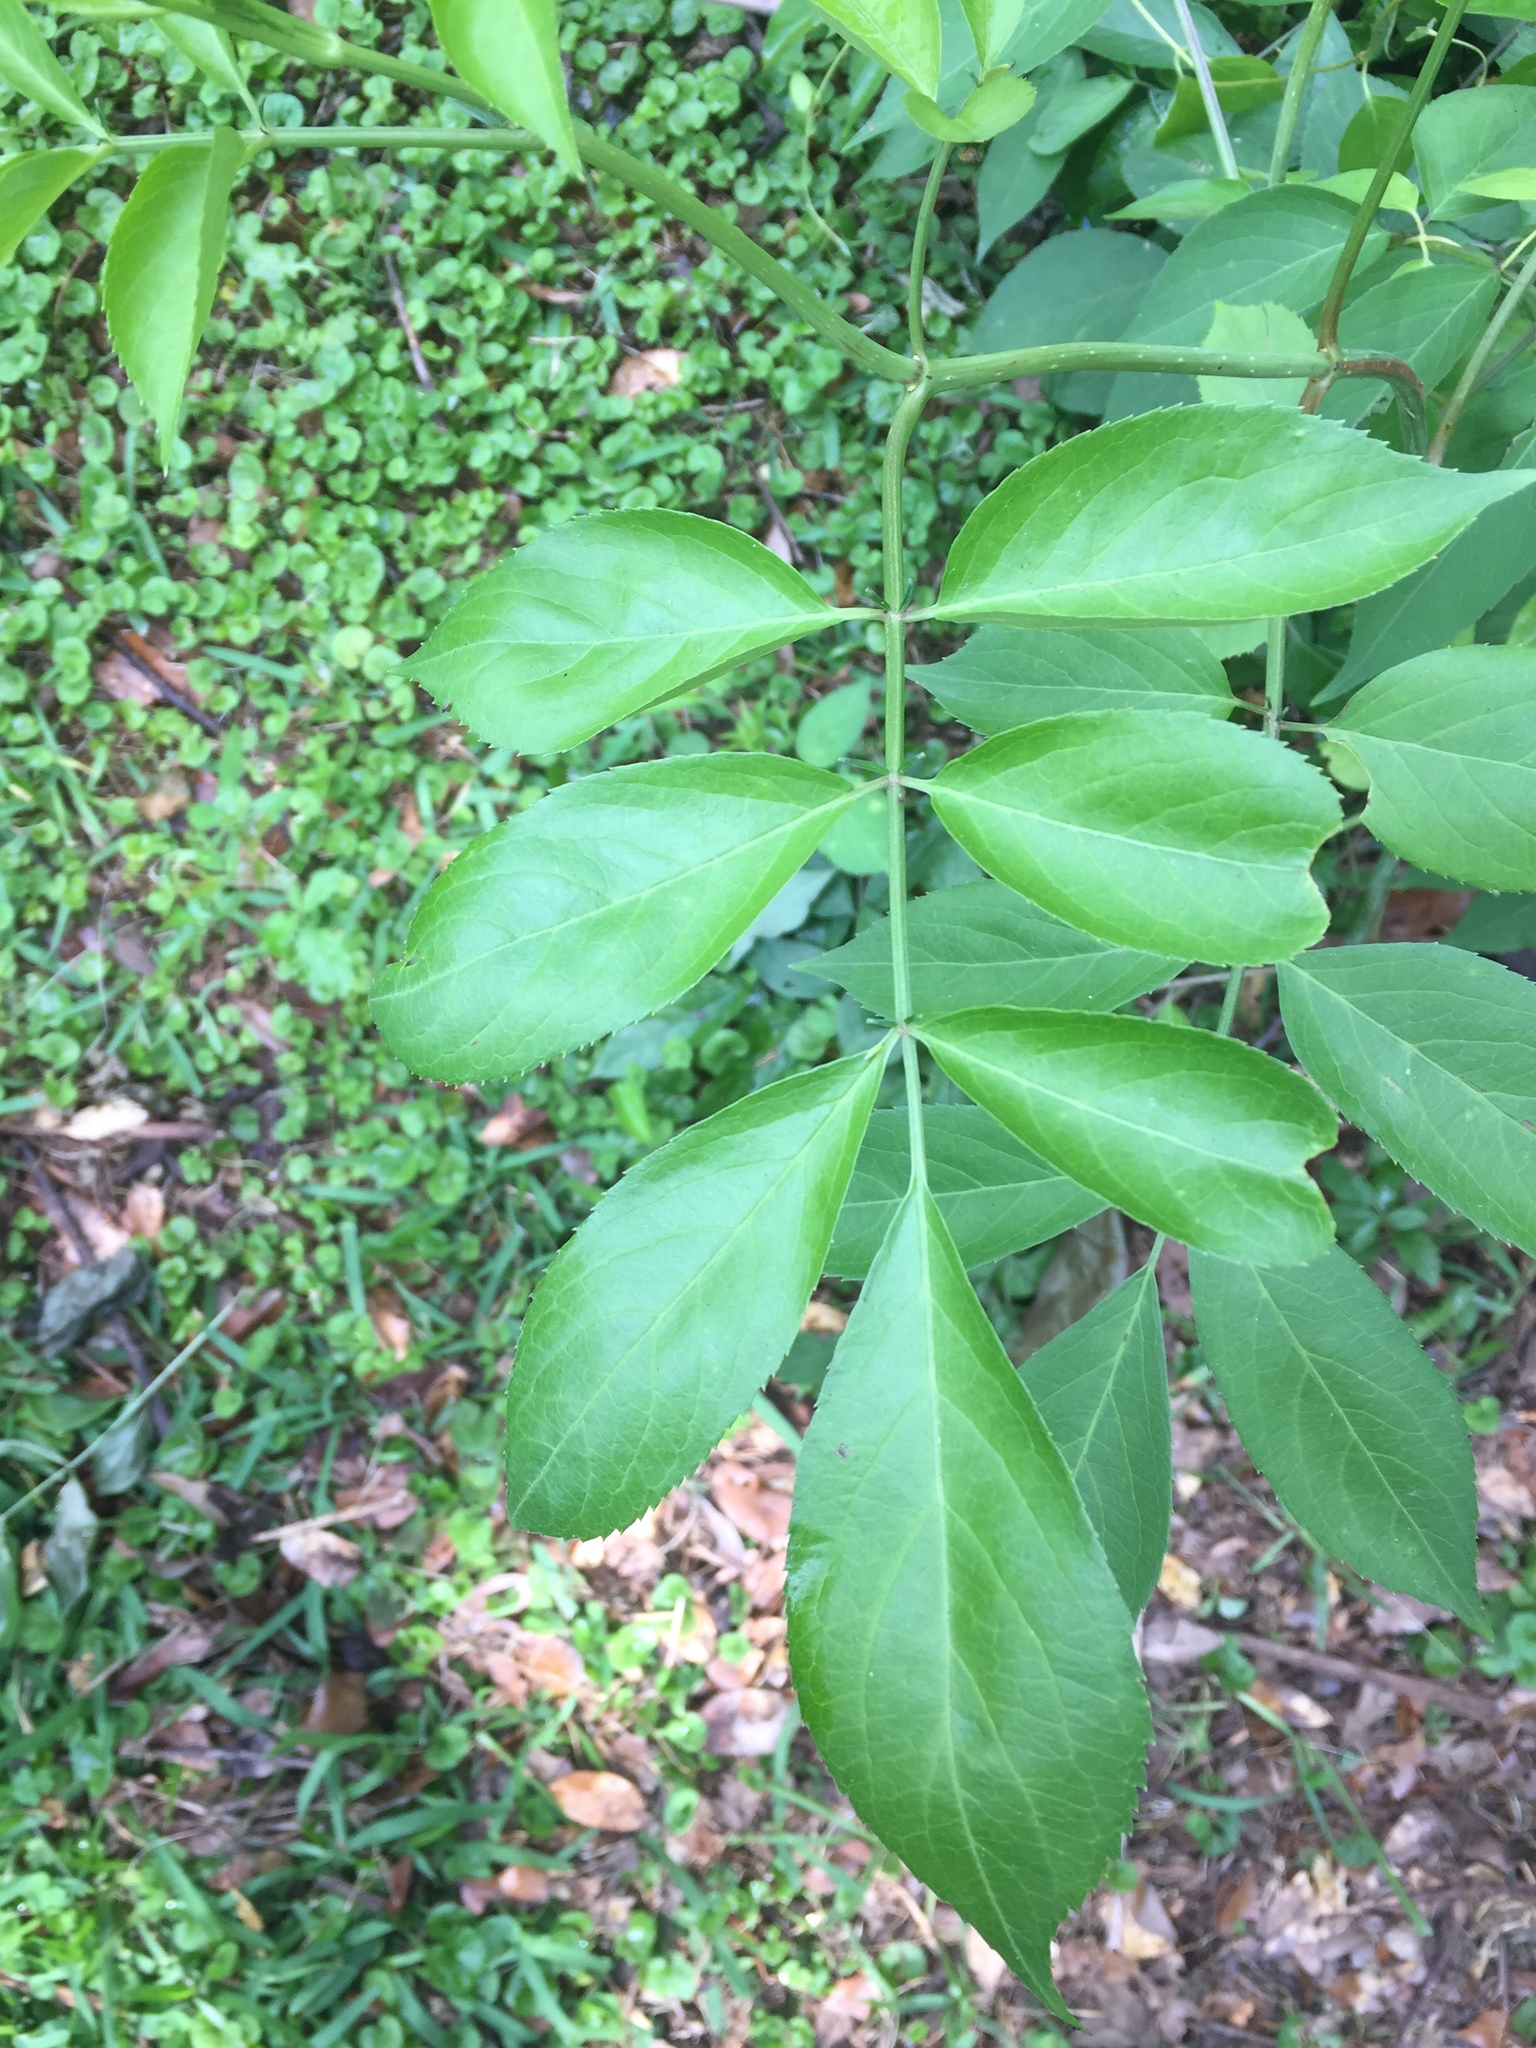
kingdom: Plantae
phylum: Tracheophyta
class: Magnoliopsida
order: Dipsacales
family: Viburnaceae
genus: Sambucus
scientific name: Sambucus canadensis
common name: American elder
